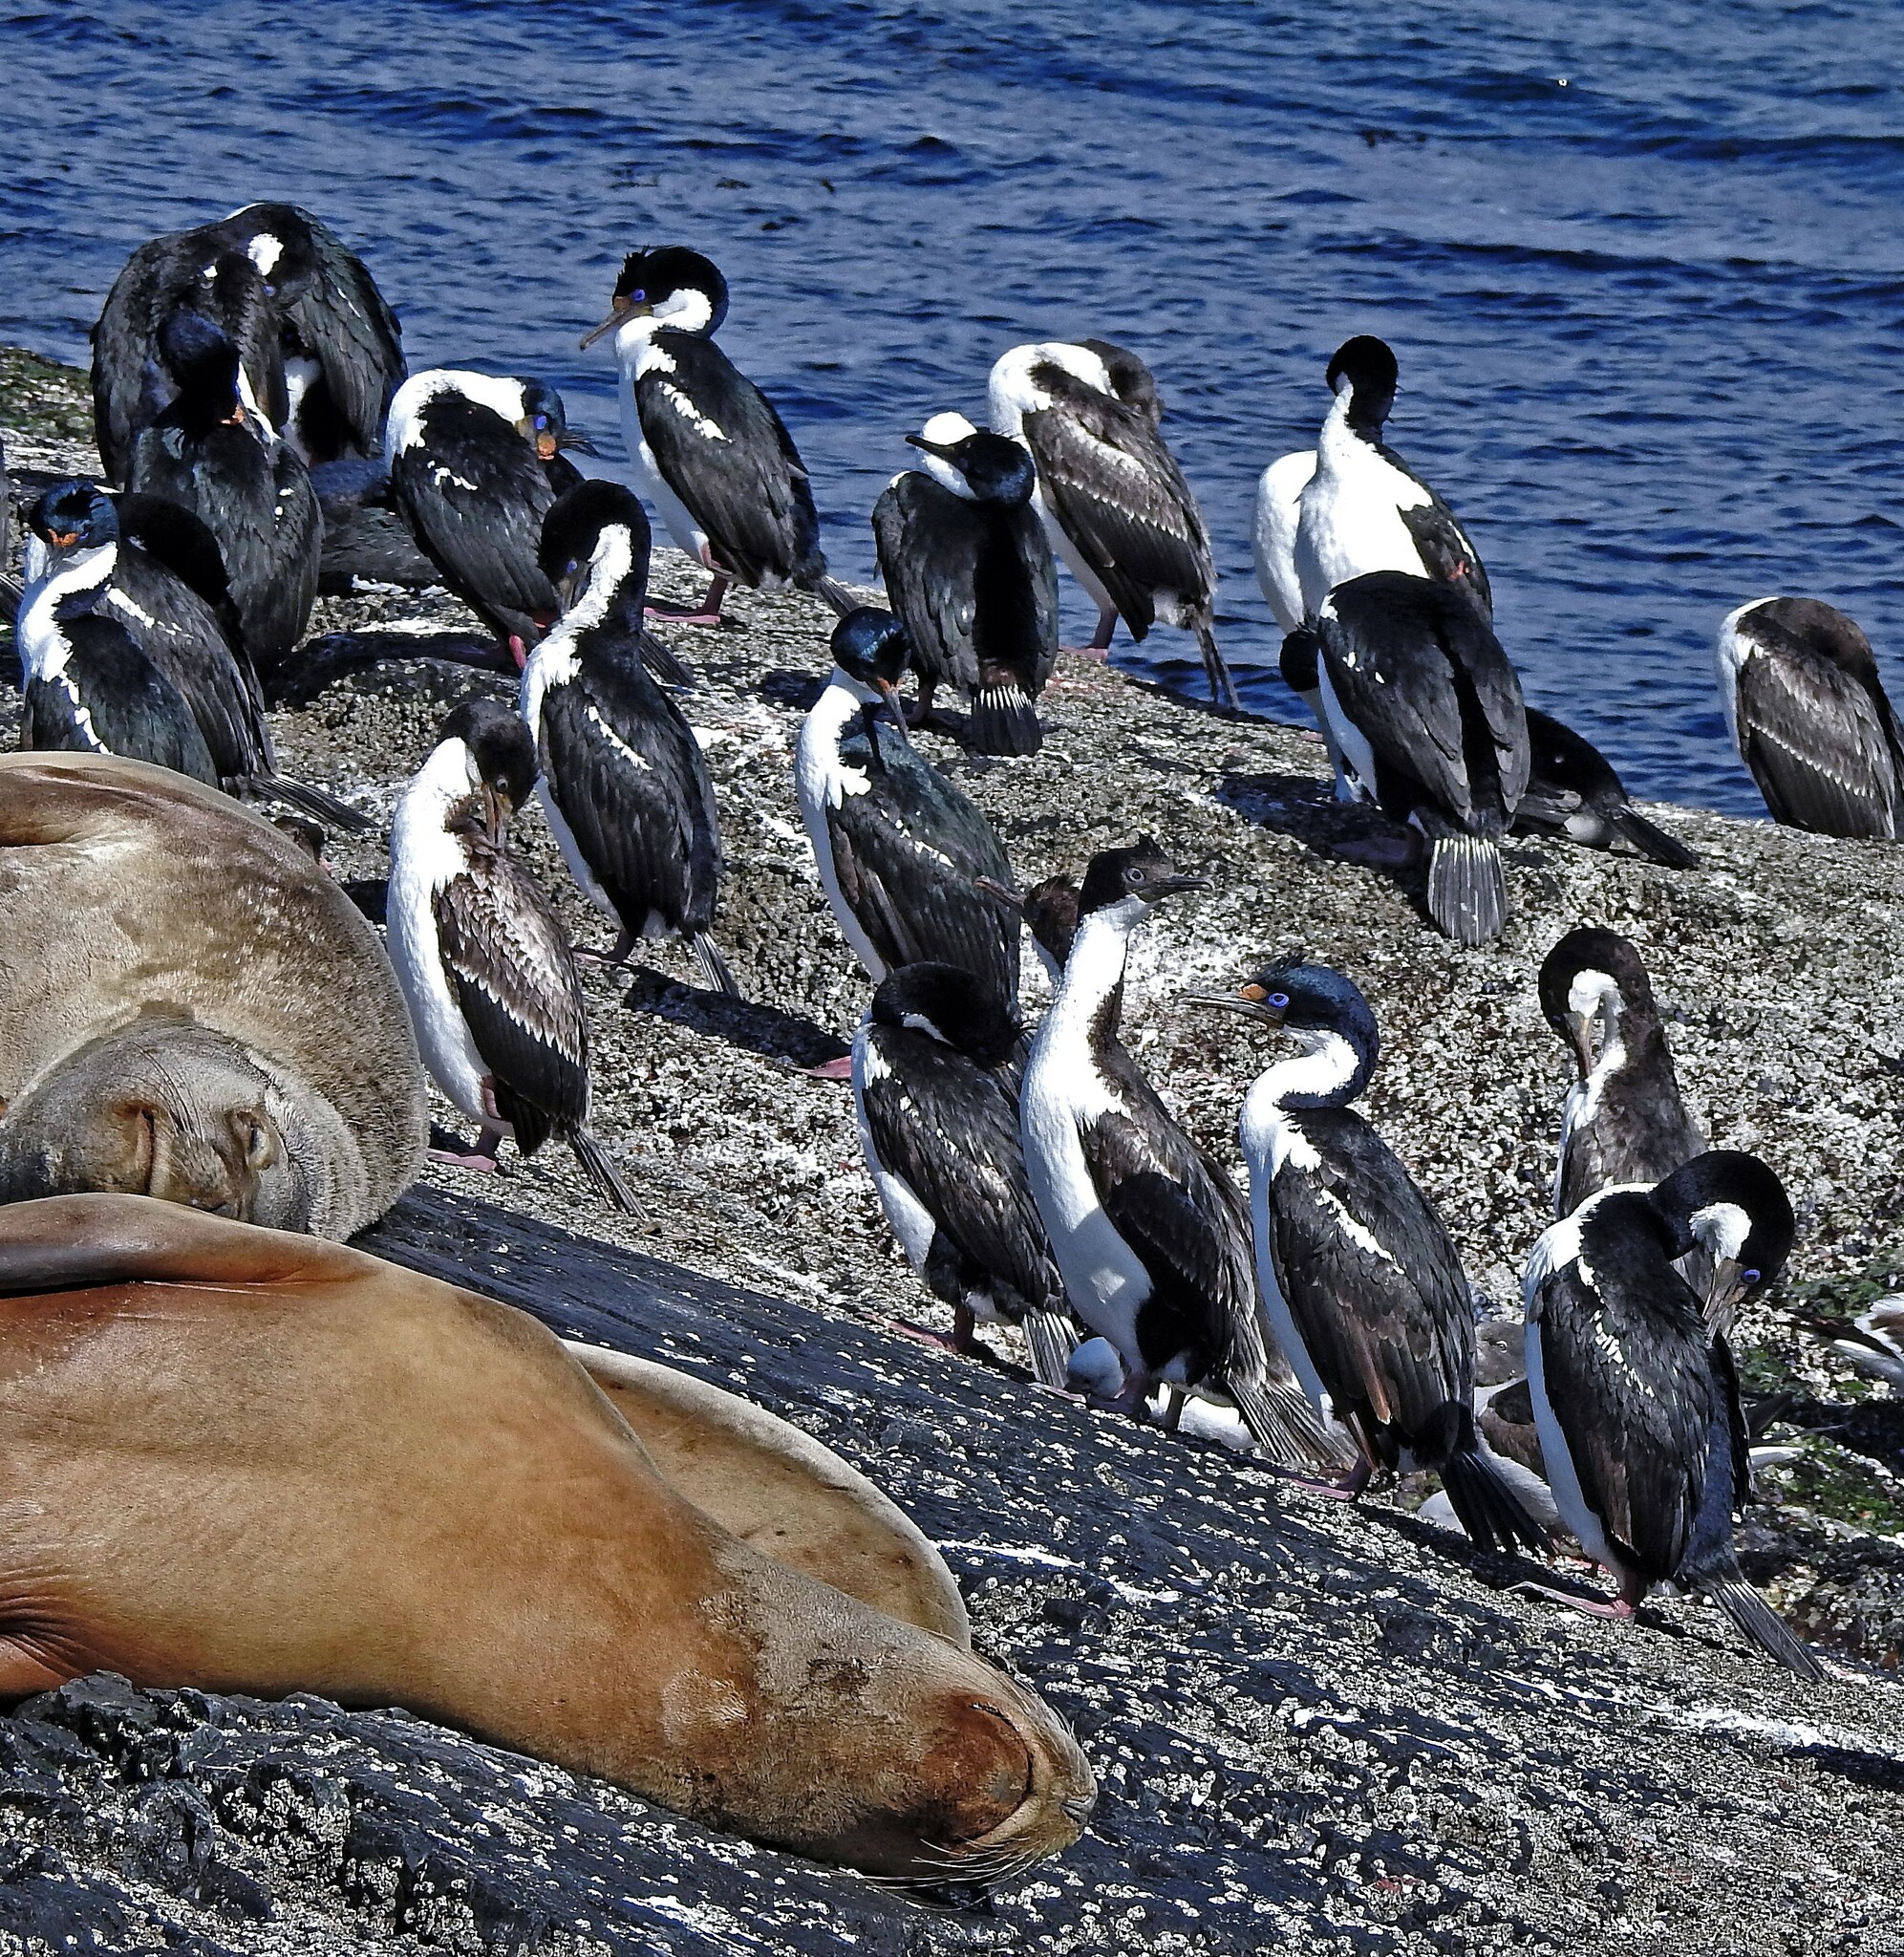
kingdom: Animalia
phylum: Chordata
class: Aves
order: Suliformes
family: Phalacrocoracidae
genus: Leucocarbo
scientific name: Leucocarbo atriceps
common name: Imperial shag
